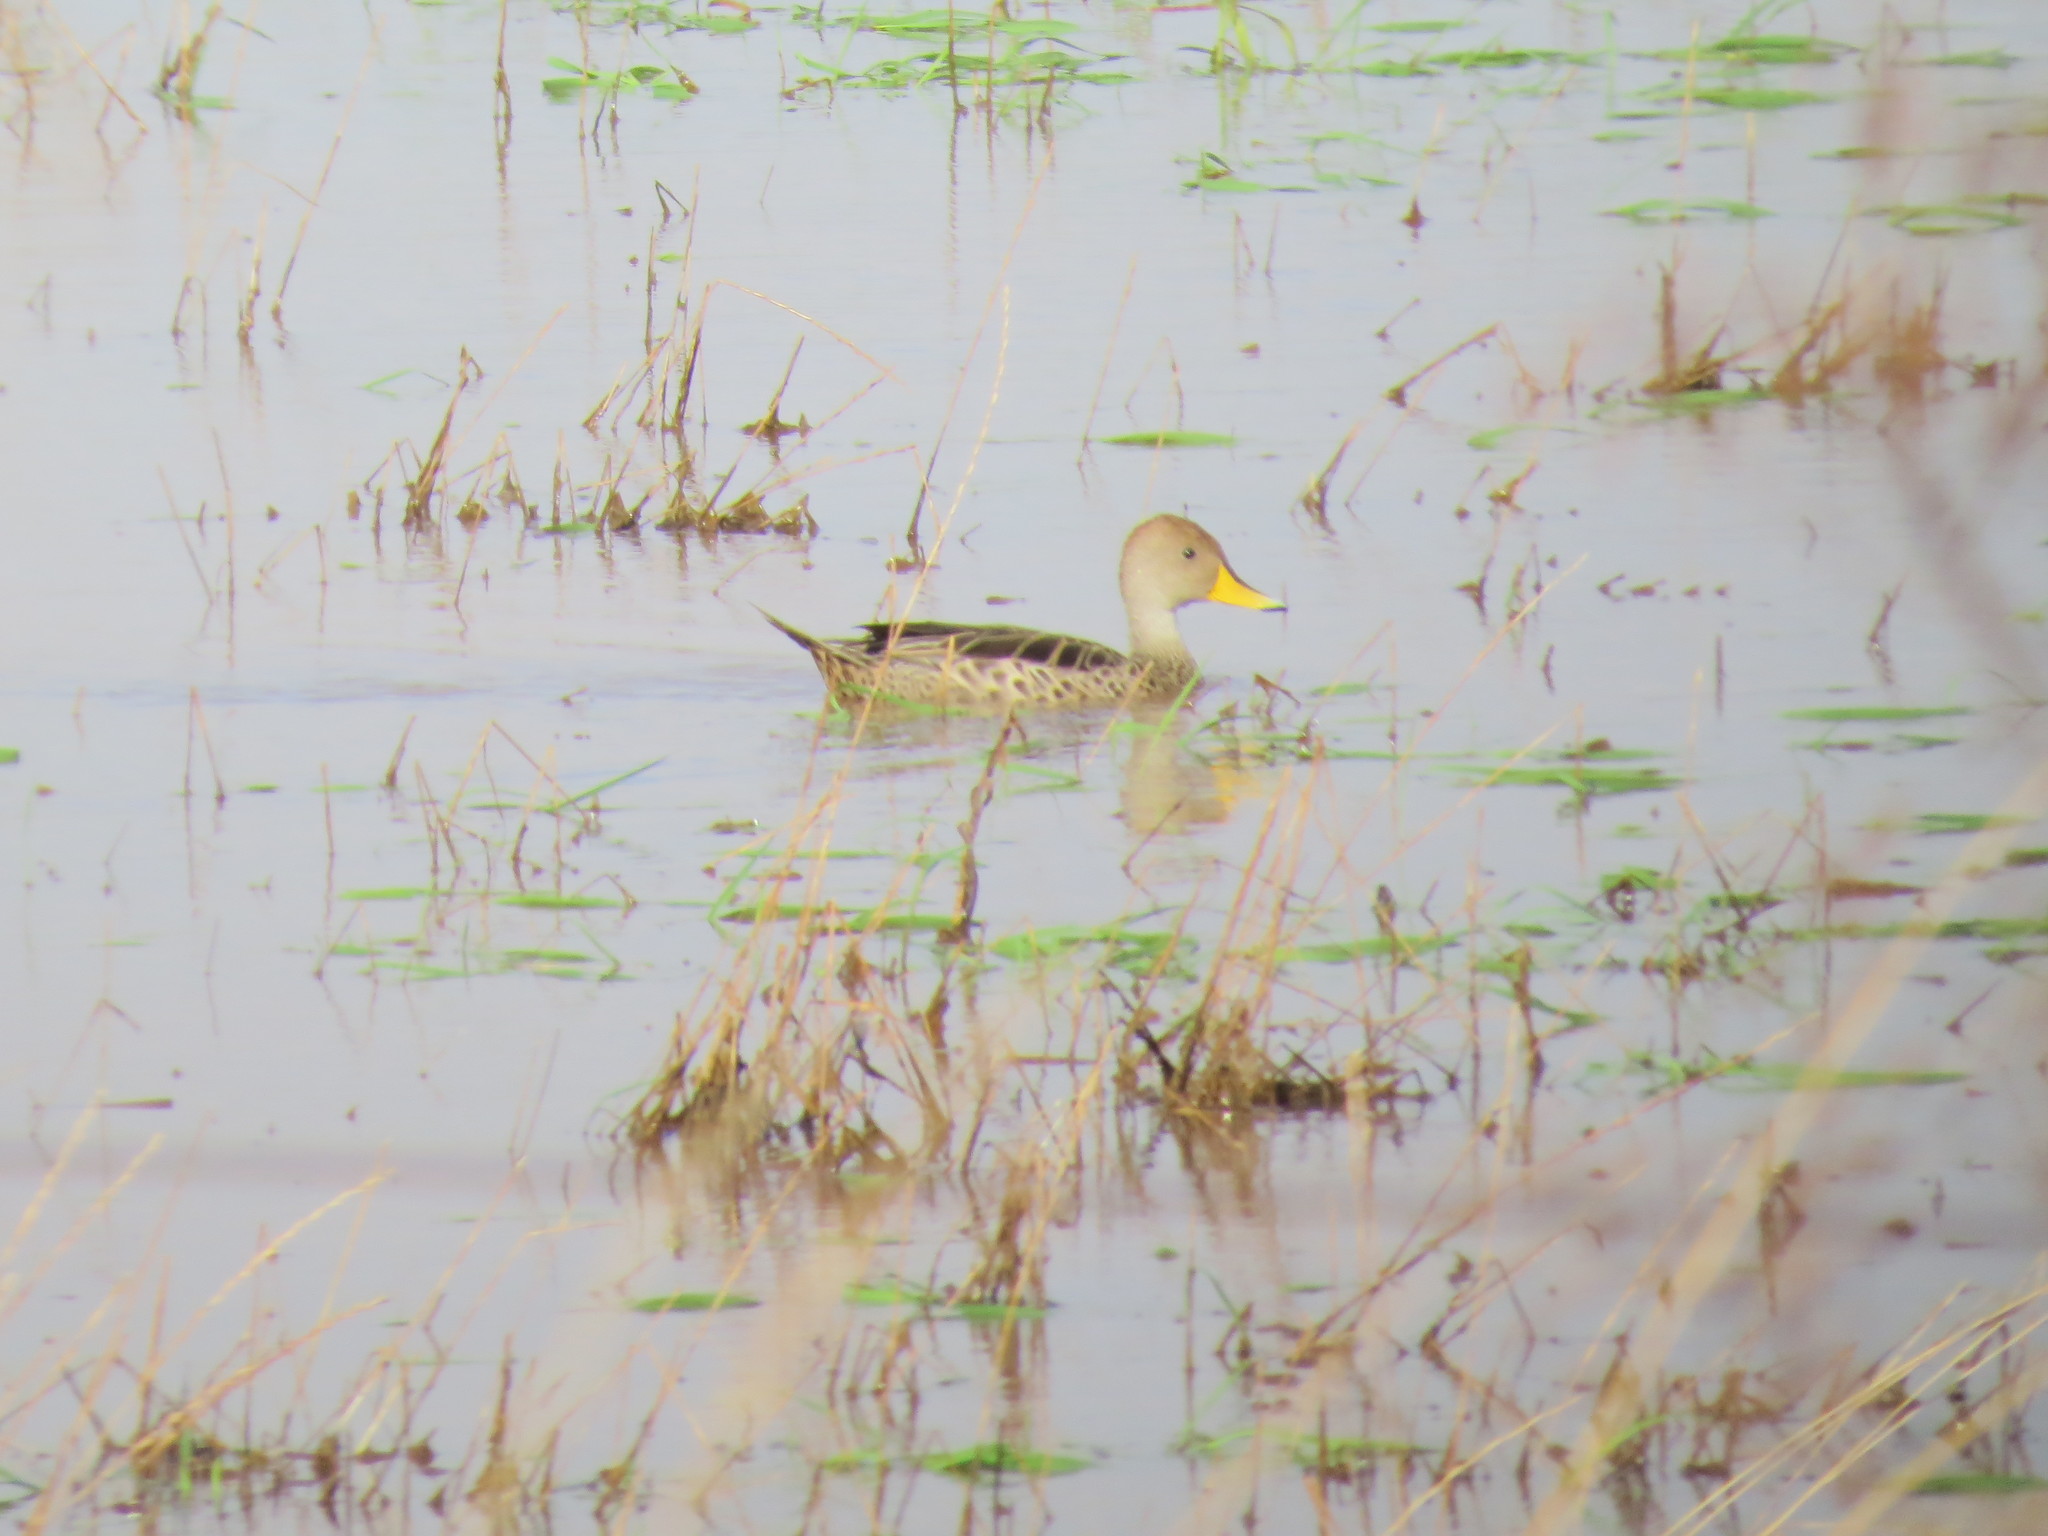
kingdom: Animalia
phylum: Chordata
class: Aves
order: Anseriformes
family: Anatidae
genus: Anas
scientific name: Anas georgica
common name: Yellow-billed pintail
